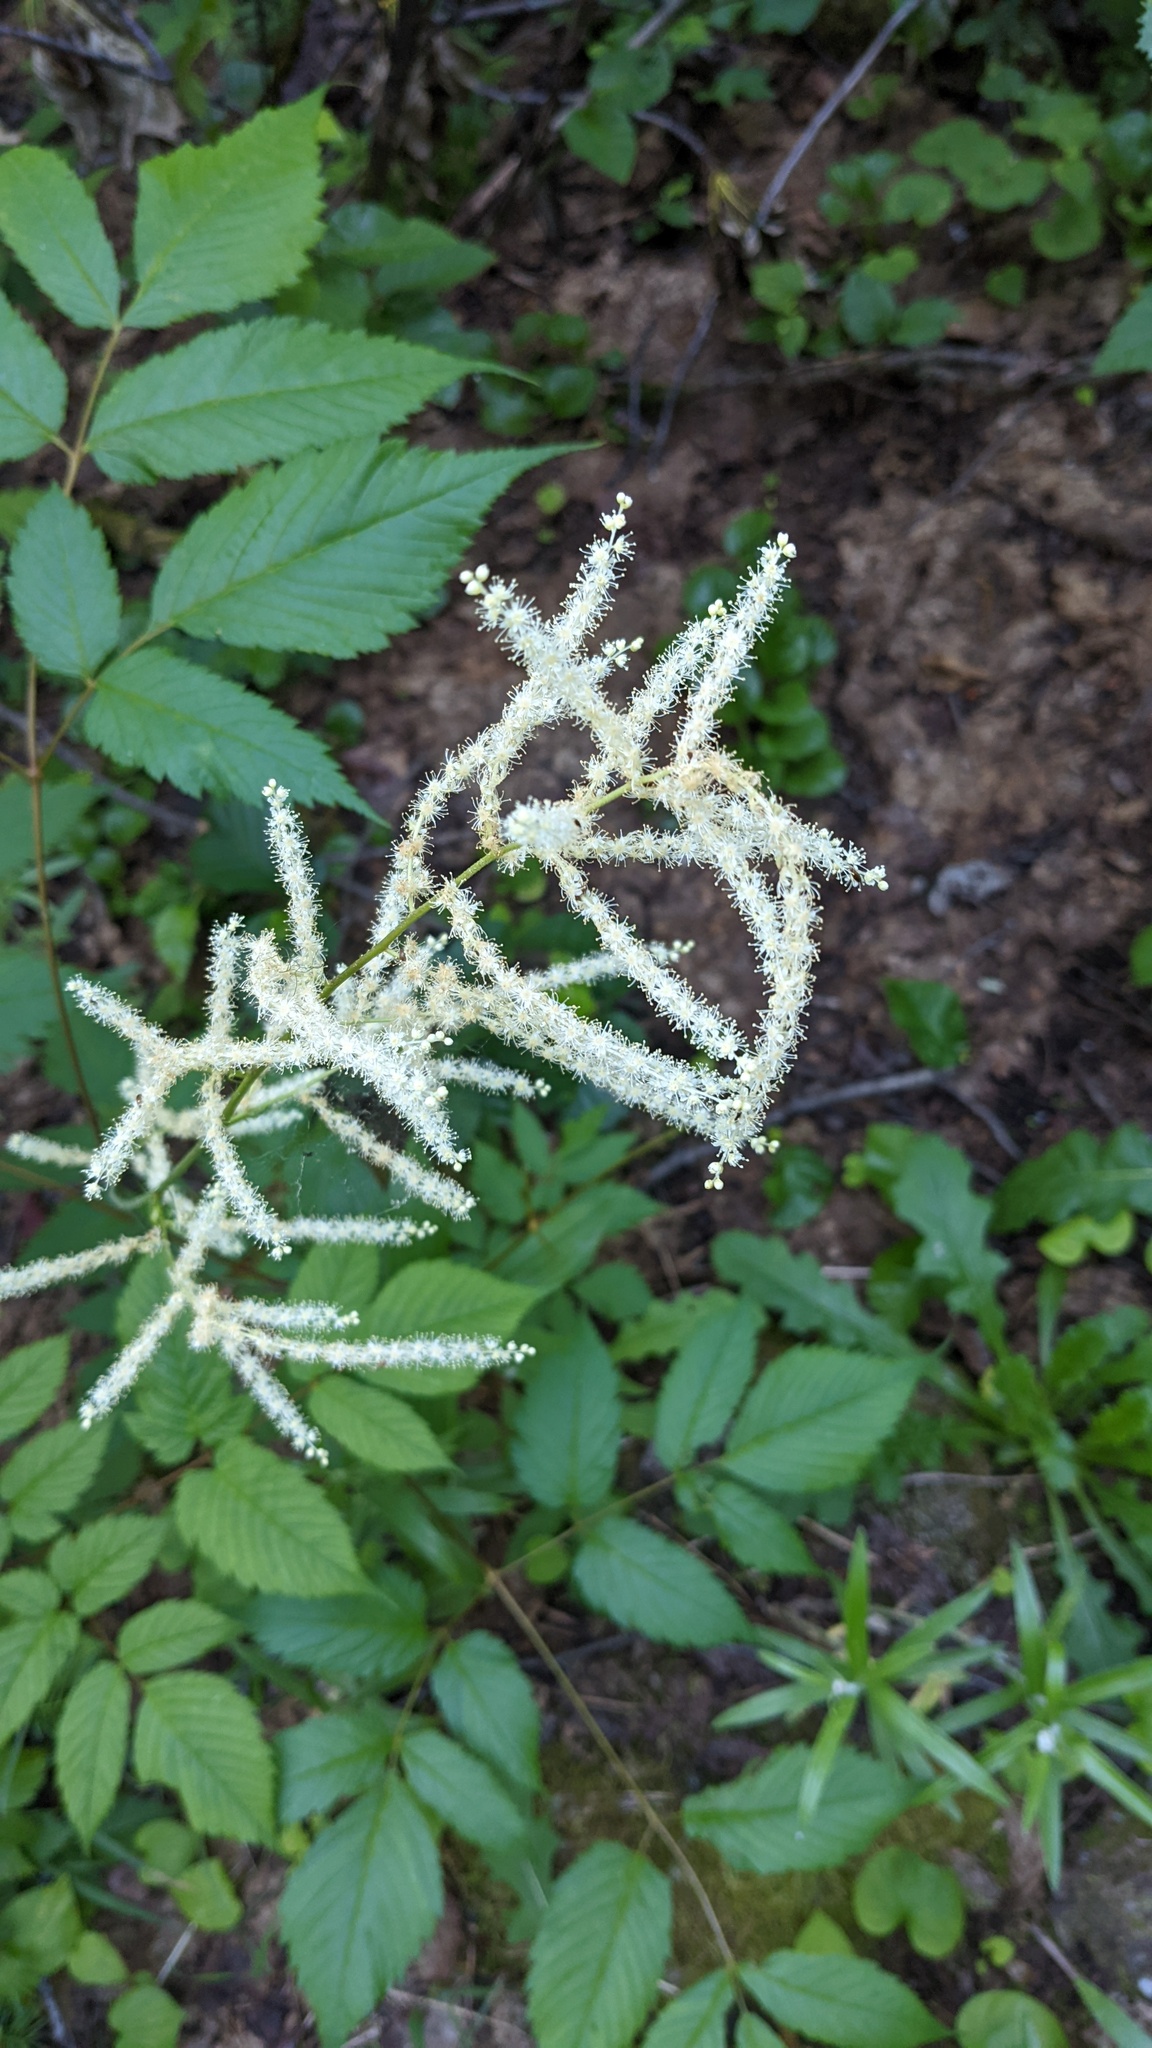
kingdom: Plantae
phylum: Tracheophyta
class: Magnoliopsida
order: Rosales
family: Rosaceae
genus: Aruncus
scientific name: Aruncus dioicus
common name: Buck's-beard
